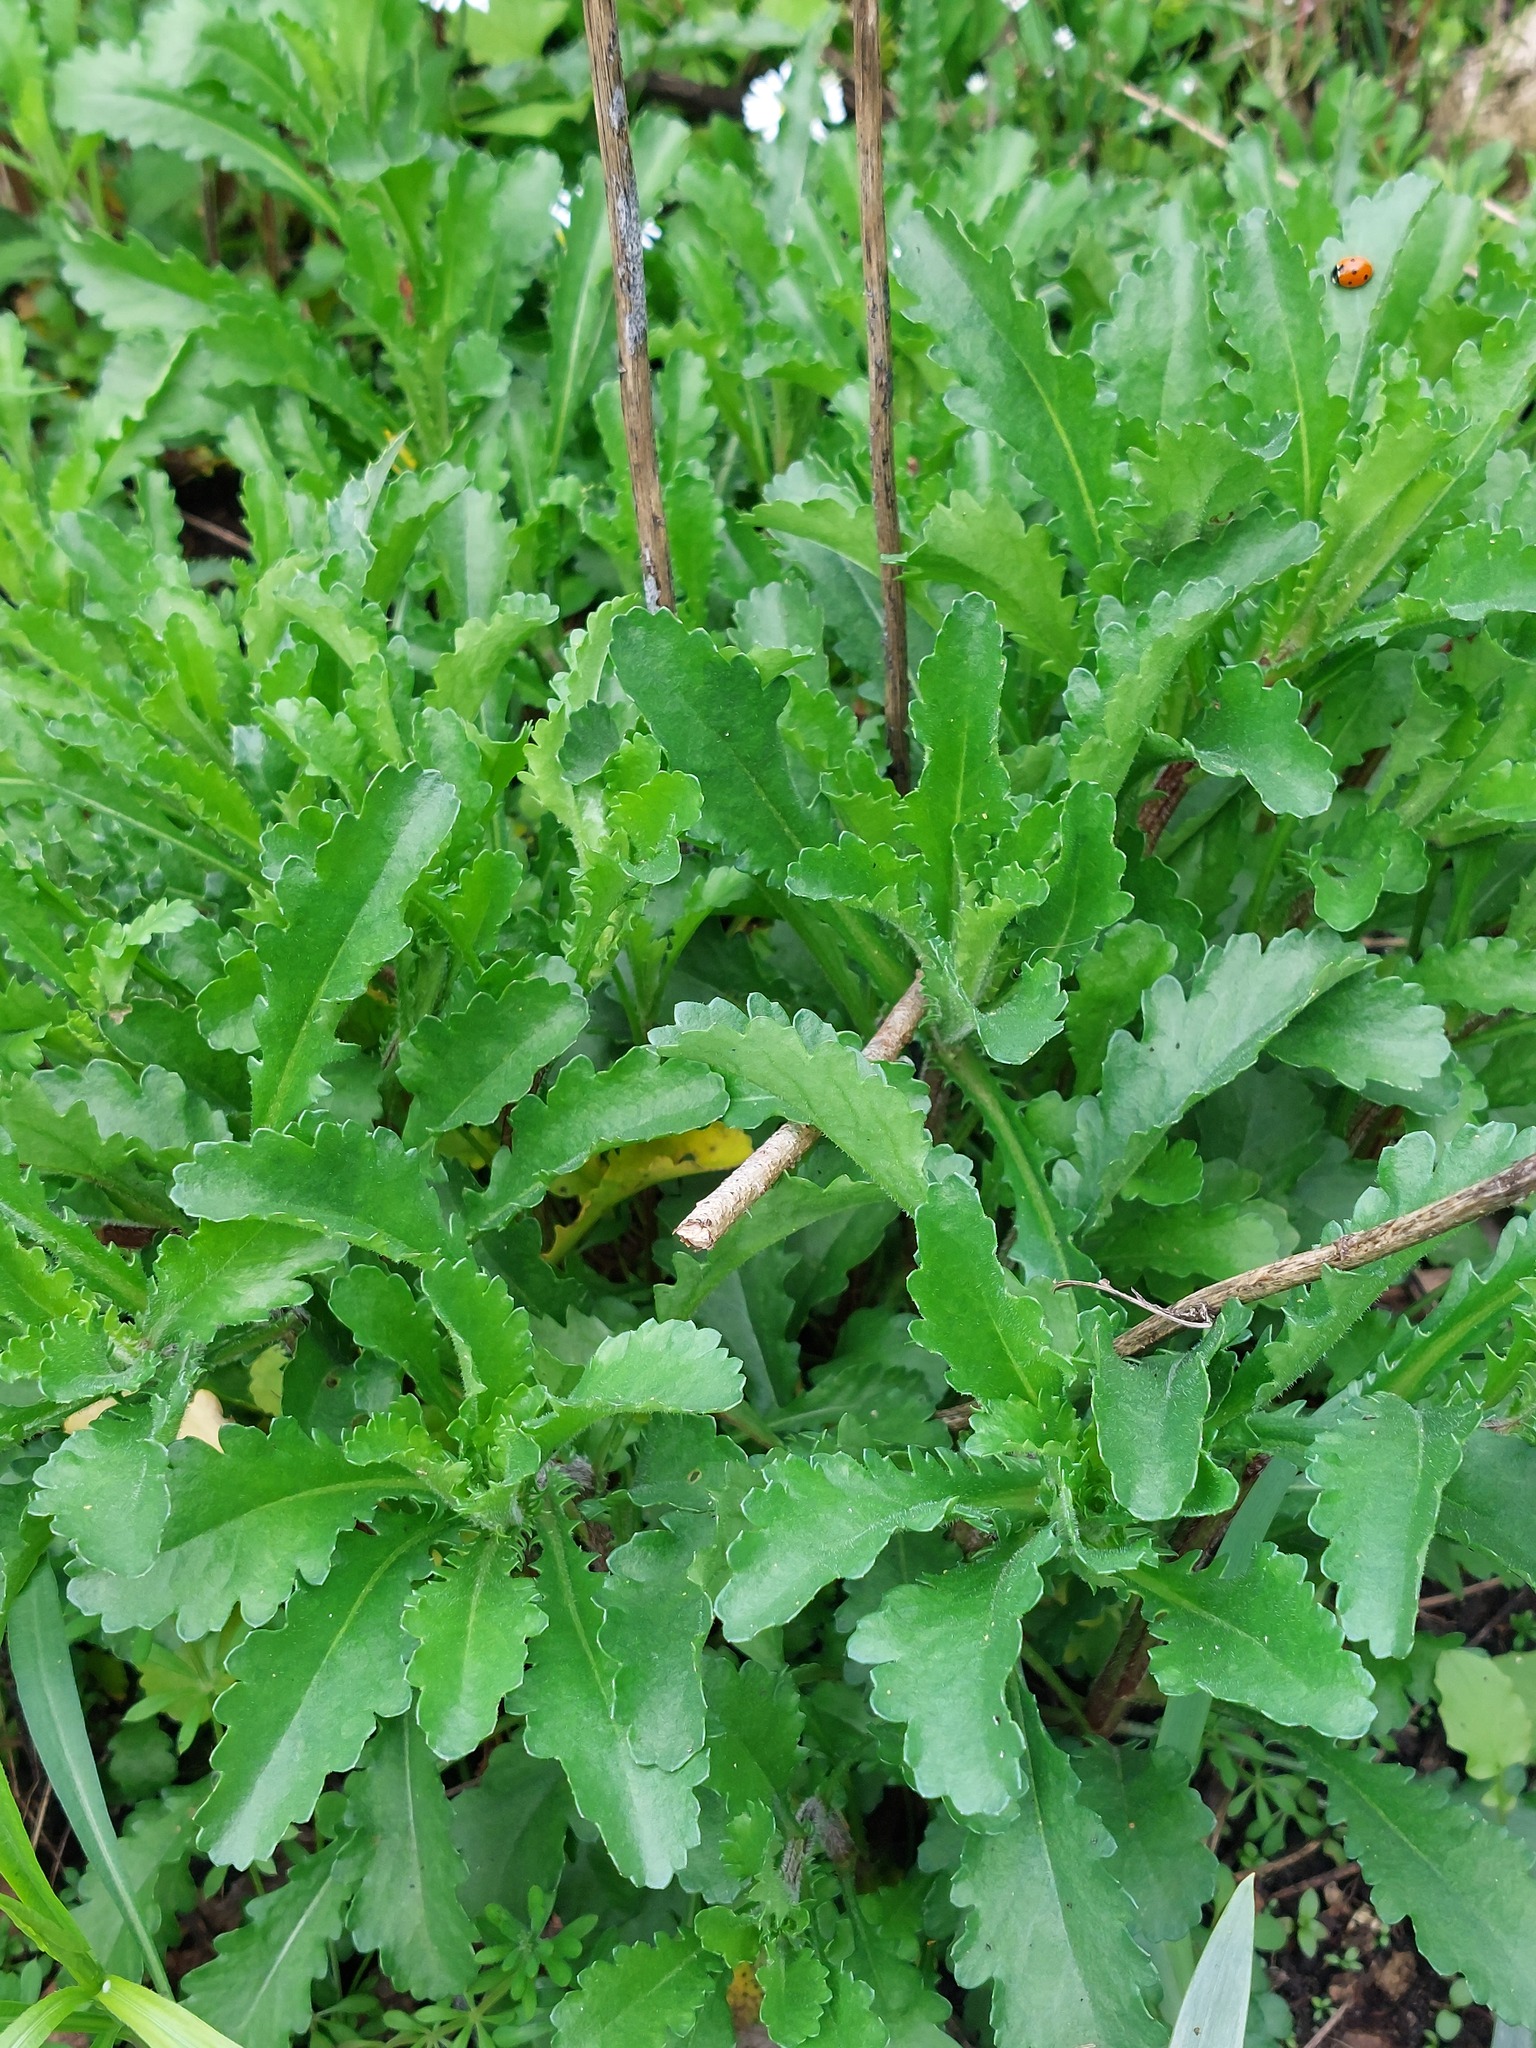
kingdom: Plantae
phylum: Tracheophyta
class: Magnoliopsida
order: Asterales
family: Asteraceae
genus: Leucanthemum
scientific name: Leucanthemum vulgare
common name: Oxeye daisy
